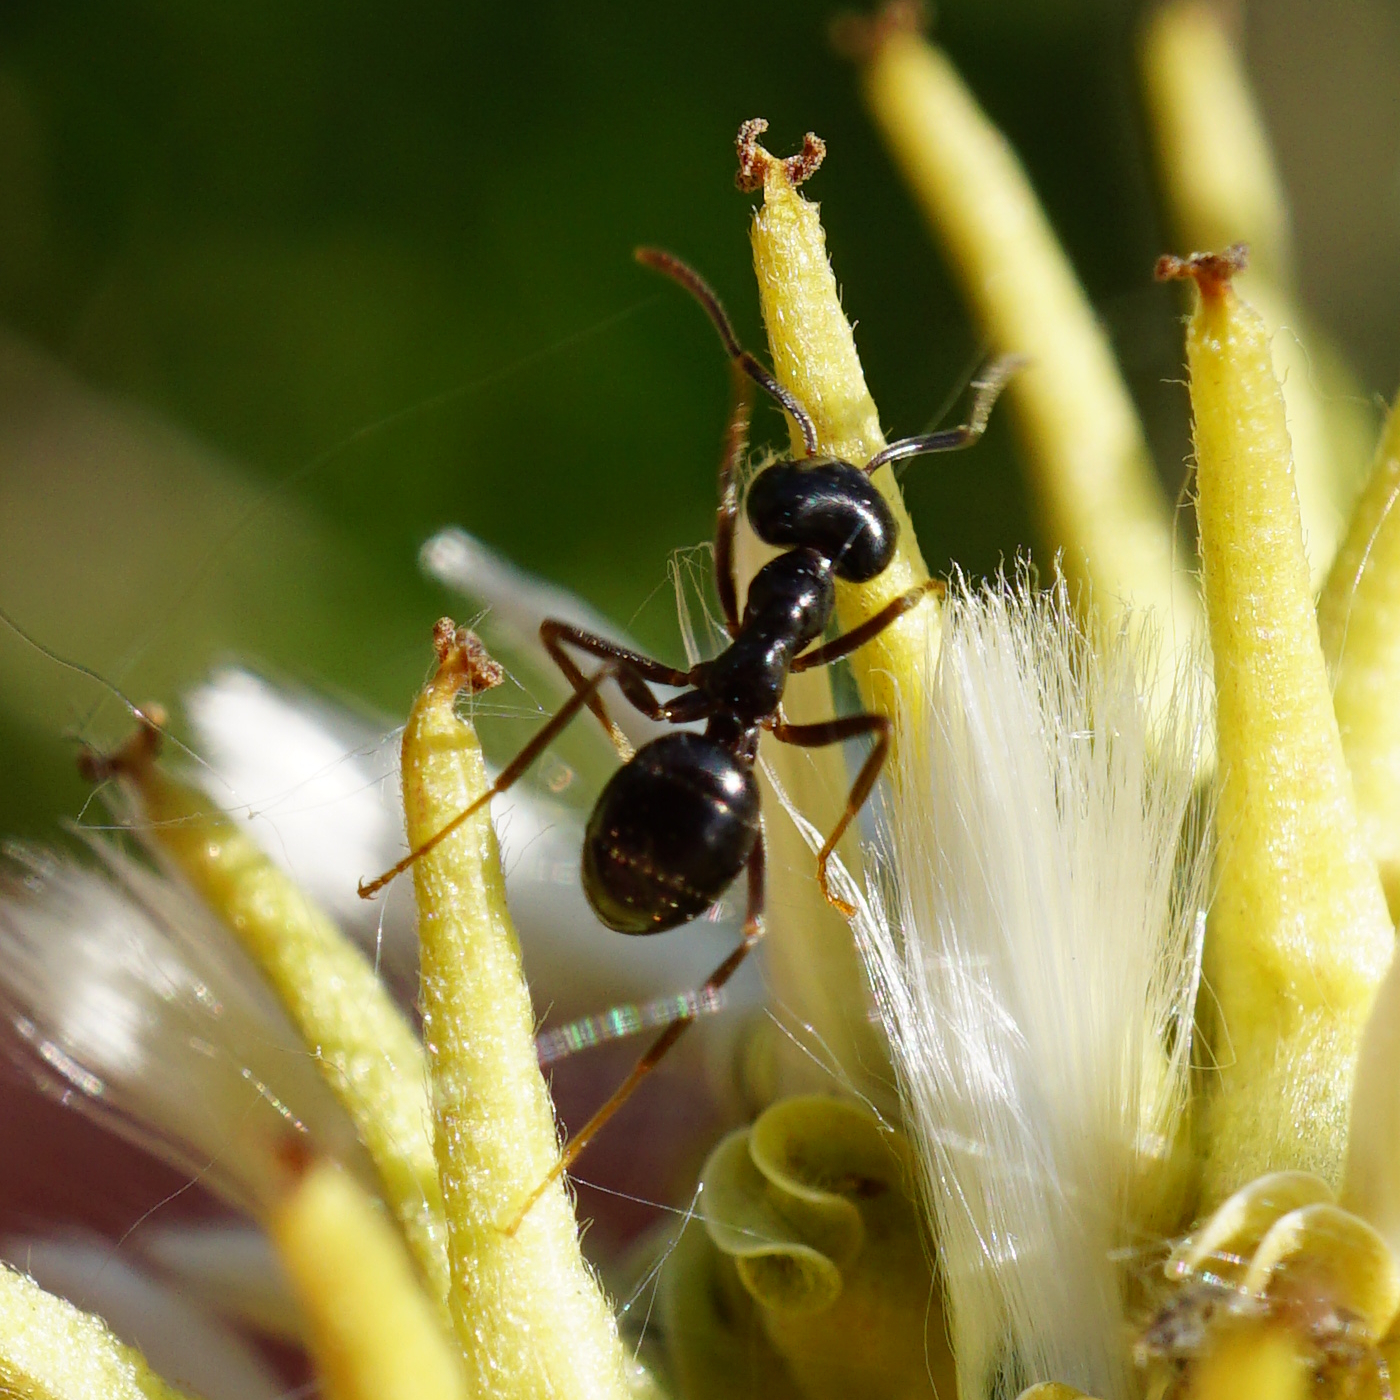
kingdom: Animalia
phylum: Arthropoda
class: Insecta
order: Hymenoptera
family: Formicidae
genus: Lasius
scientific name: Lasius fuliginosus
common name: Jet ant
